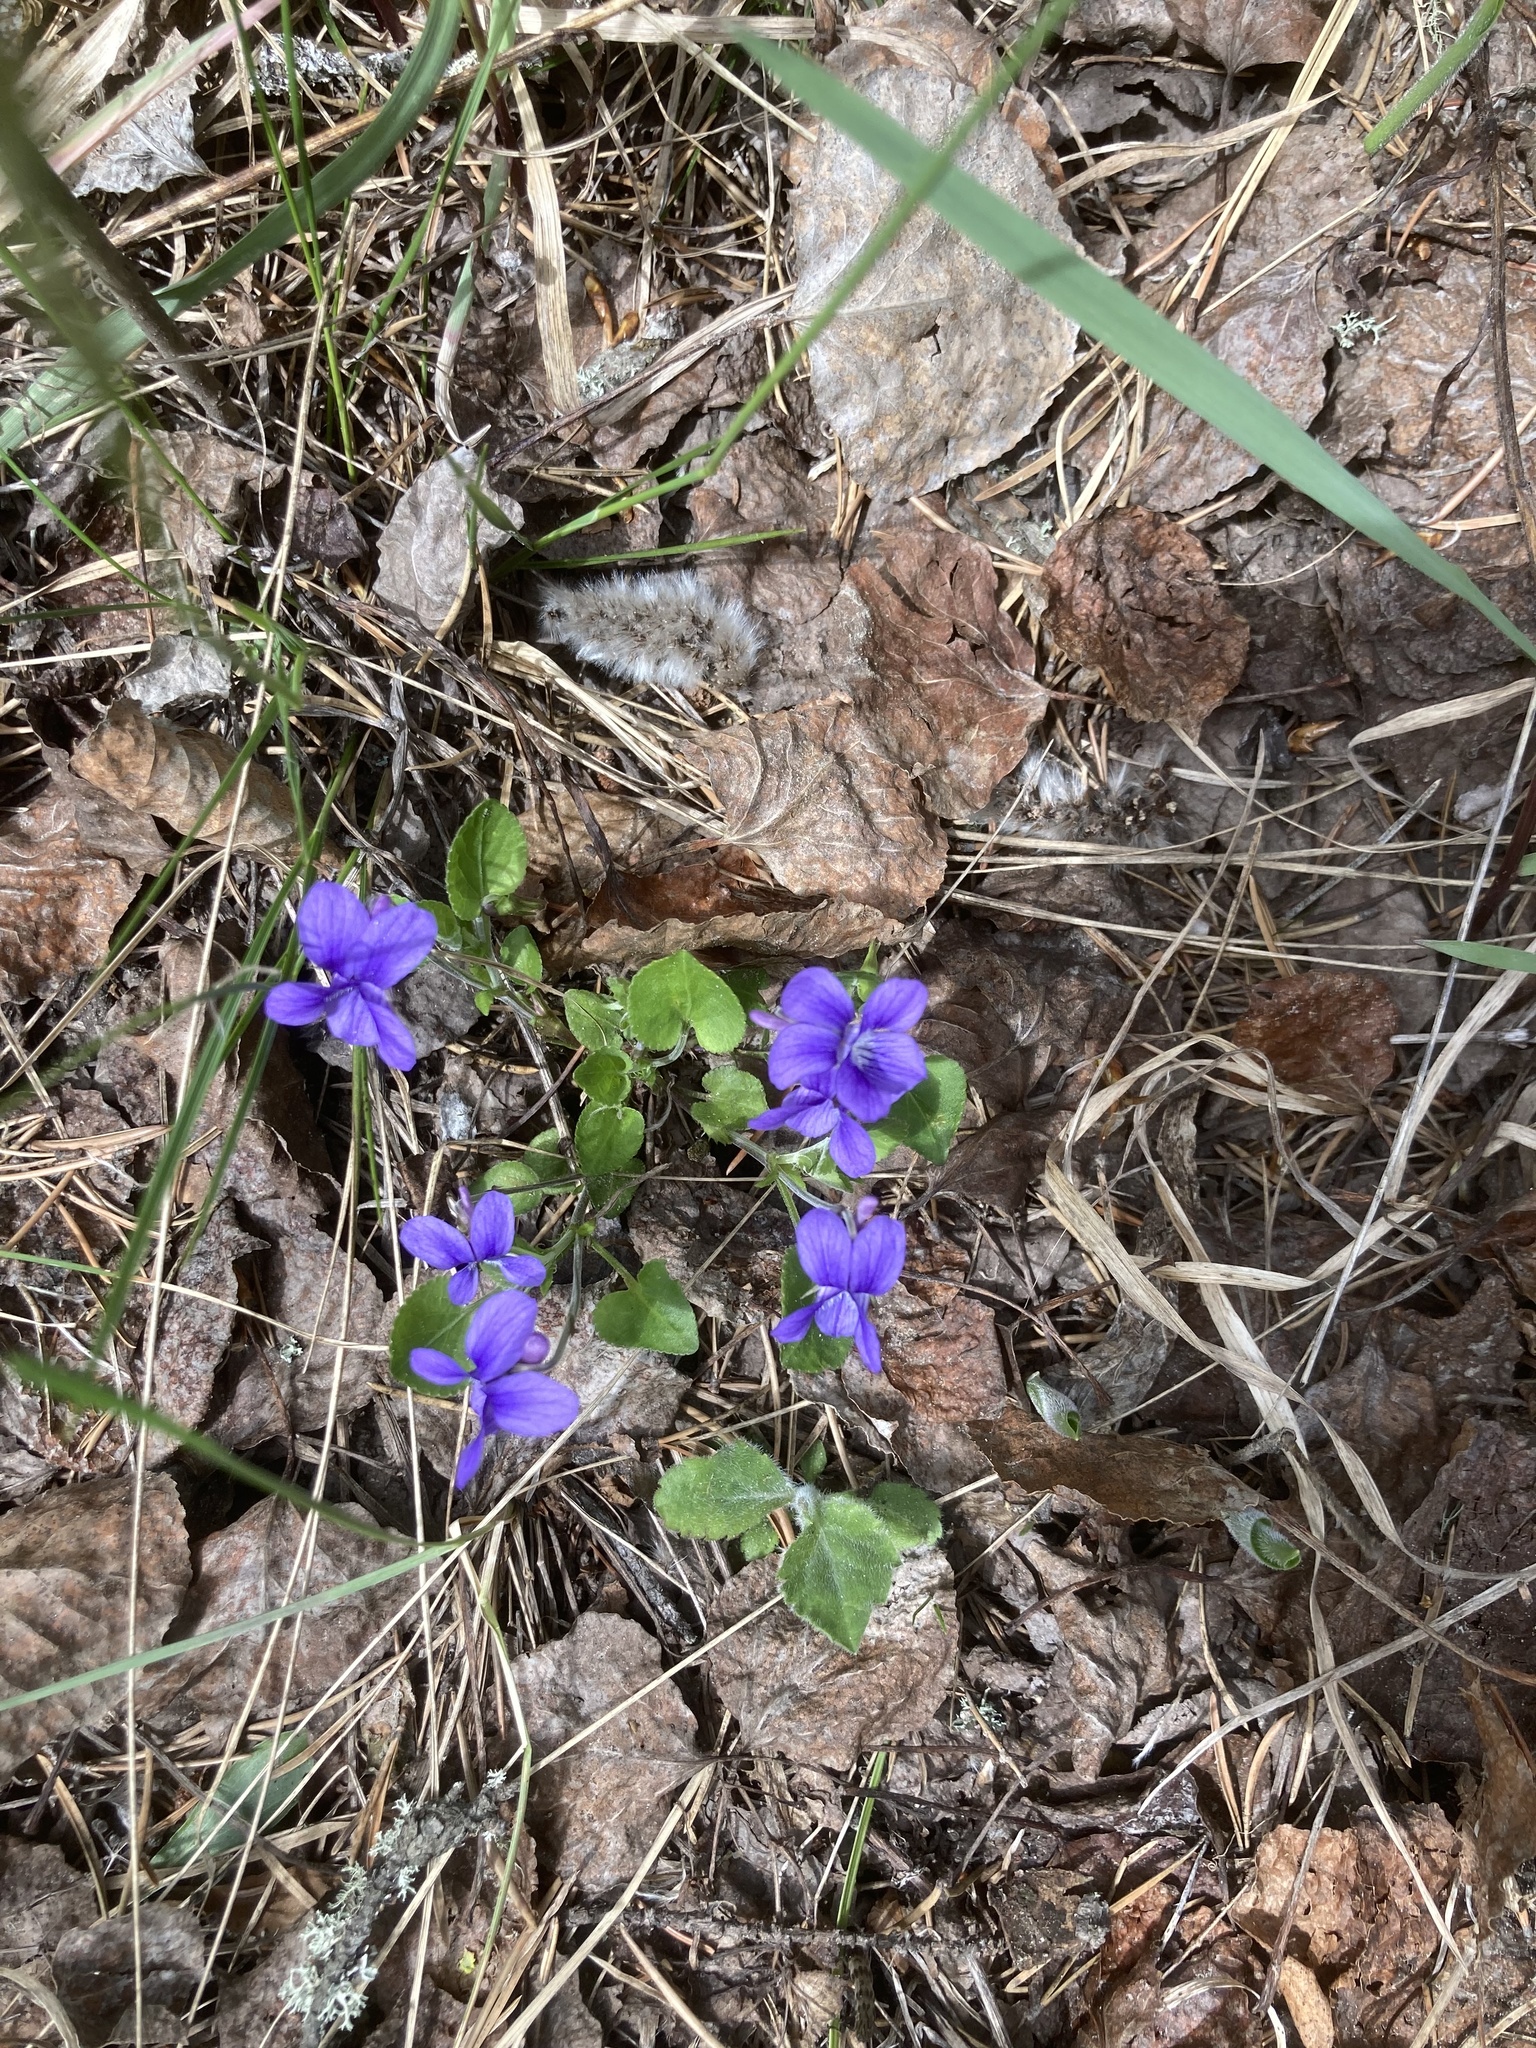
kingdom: Plantae
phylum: Tracheophyta
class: Magnoliopsida
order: Malpighiales
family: Violaceae
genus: Viola
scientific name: Viola adunca
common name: Sand violet
